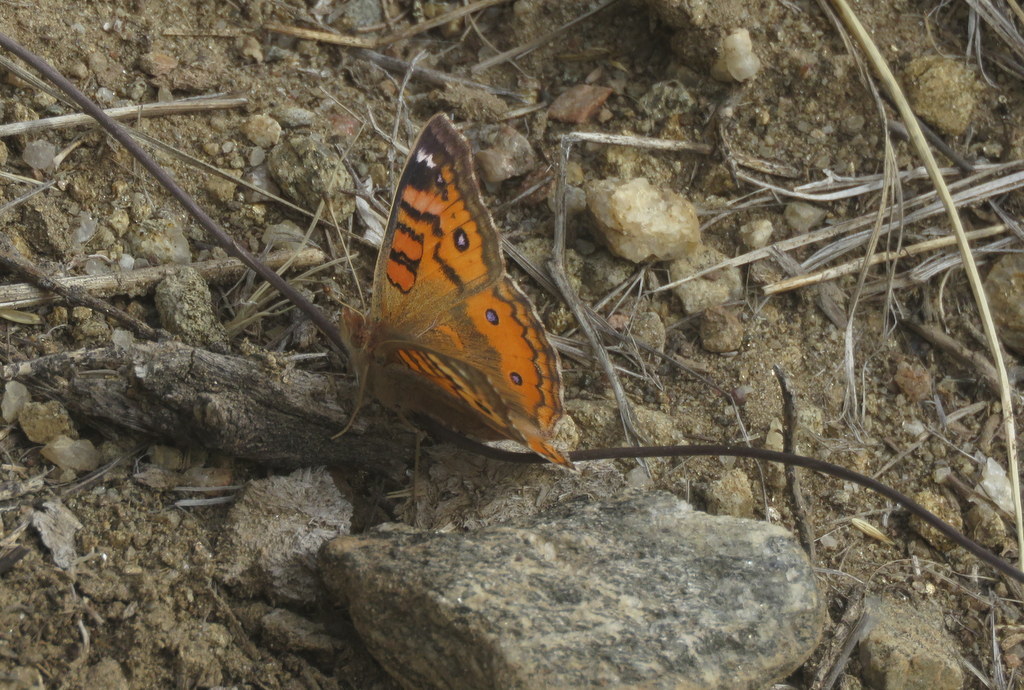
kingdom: Animalia
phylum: Arthropoda
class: Insecta
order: Lepidoptera
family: Nymphalidae
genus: Junonia
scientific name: Junonia vestina
